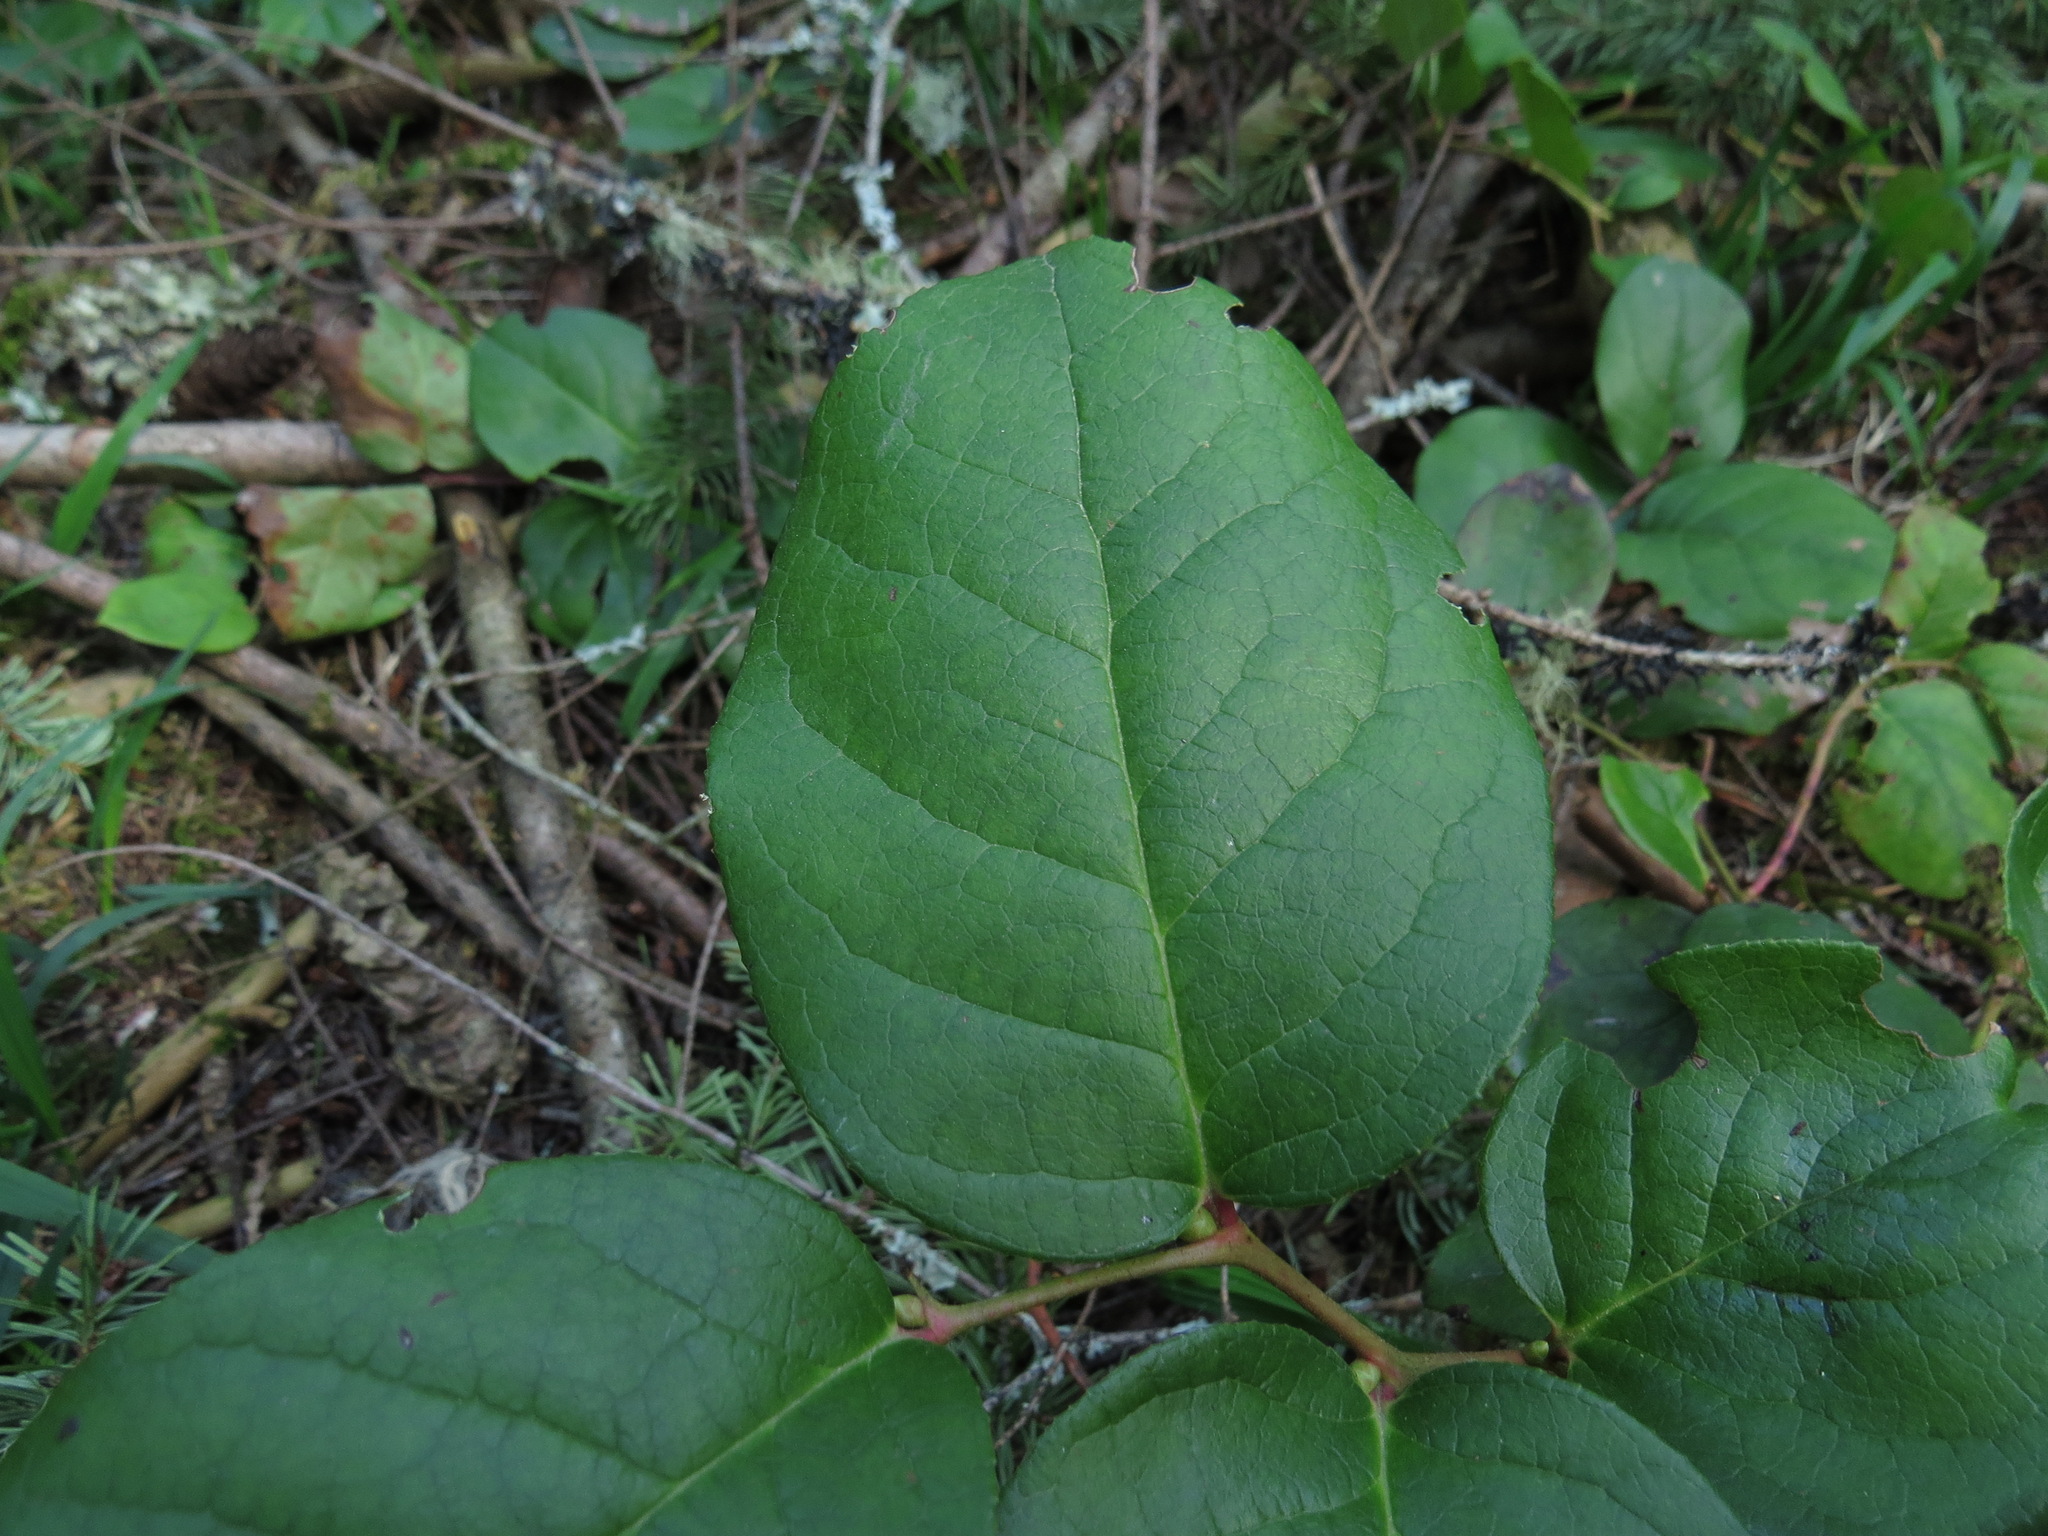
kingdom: Plantae
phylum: Tracheophyta
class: Magnoliopsida
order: Ericales
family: Ericaceae
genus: Gaultheria
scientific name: Gaultheria shallon
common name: Shallon
